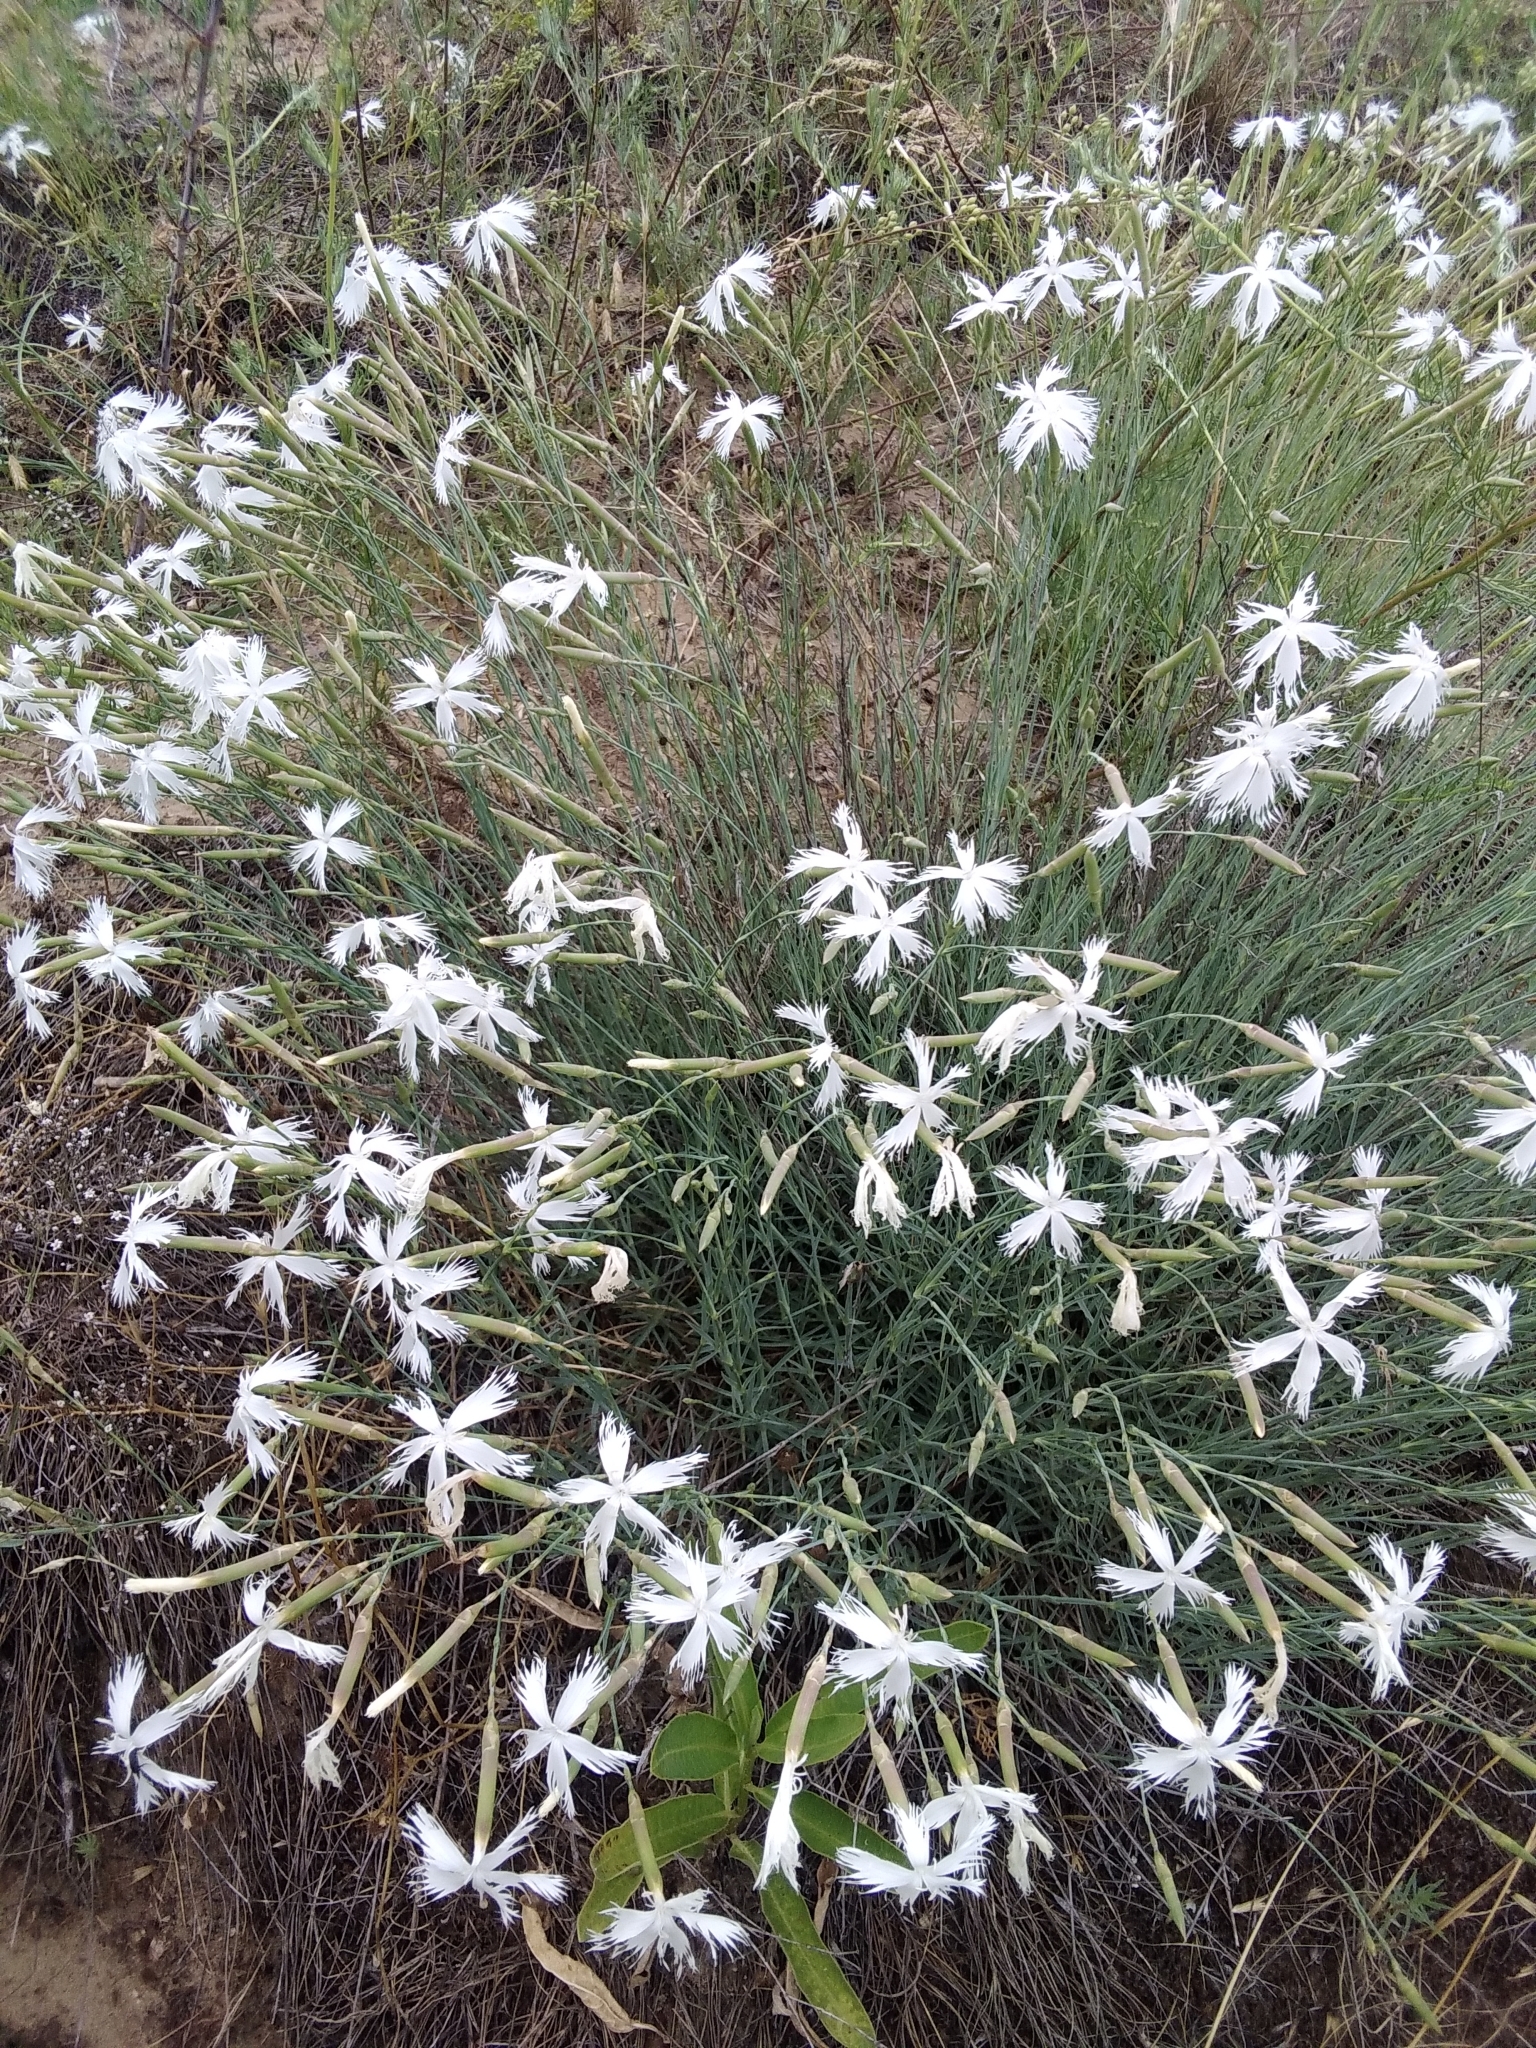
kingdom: Plantae
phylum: Tracheophyta
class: Magnoliopsida
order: Caryophyllales
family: Caryophyllaceae
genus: Dianthus
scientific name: Dianthus serotinus
